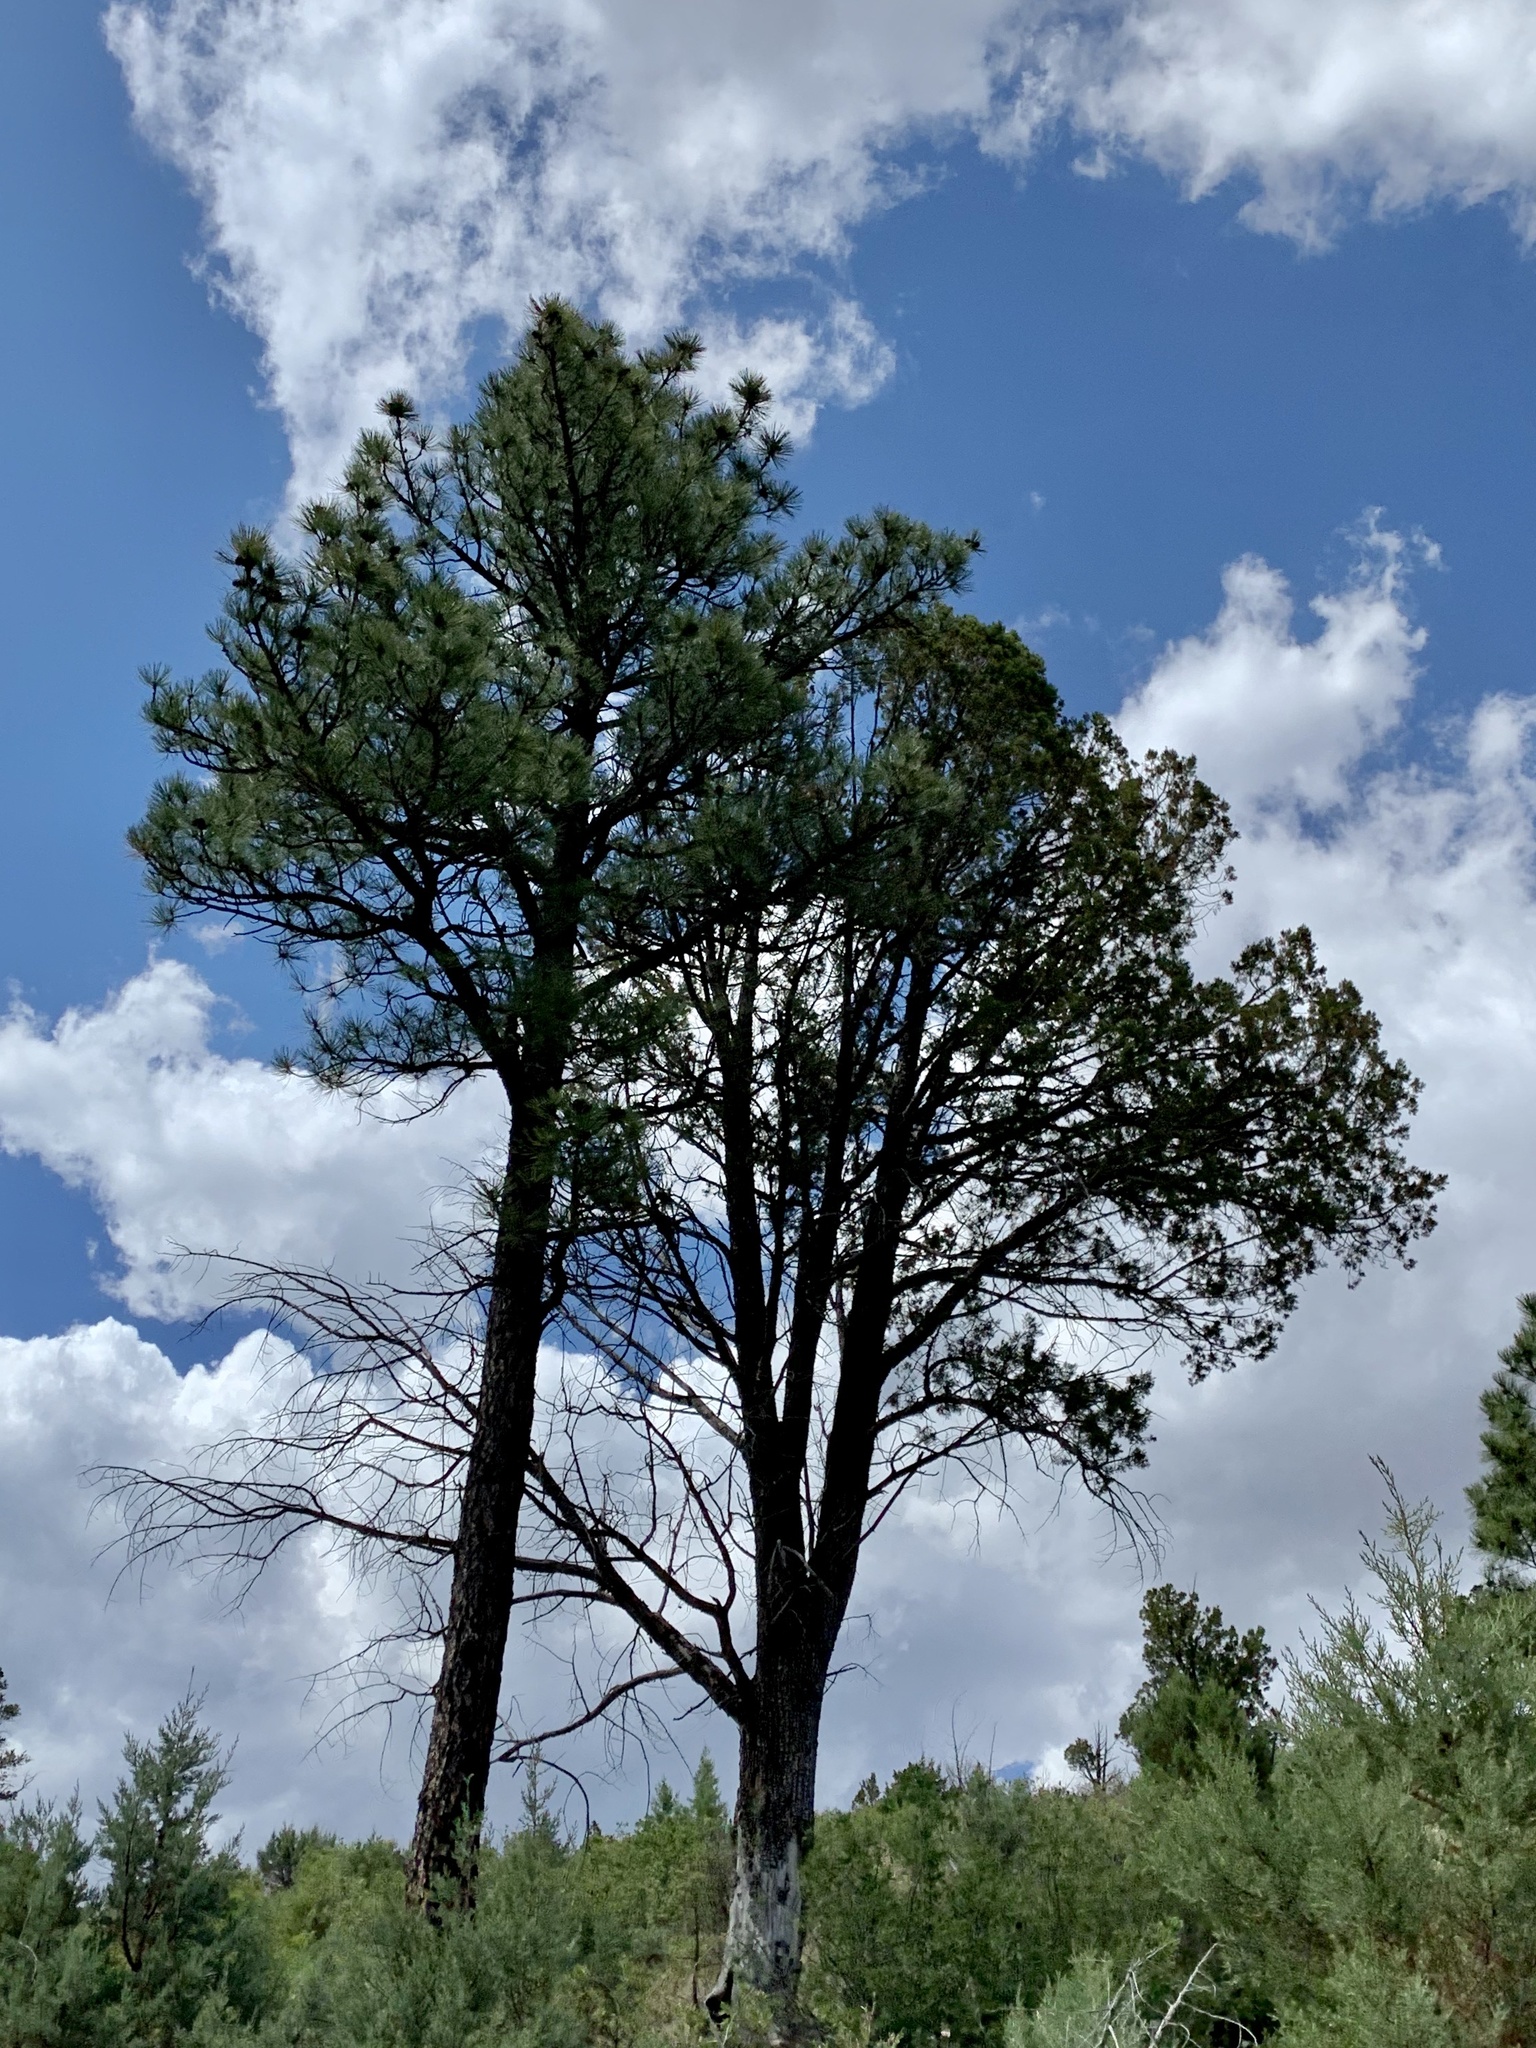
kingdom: Plantae
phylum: Tracheophyta
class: Pinopsida
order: Pinales
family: Pinaceae
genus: Pinus
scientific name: Pinus ponderosa
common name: Western yellow-pine
